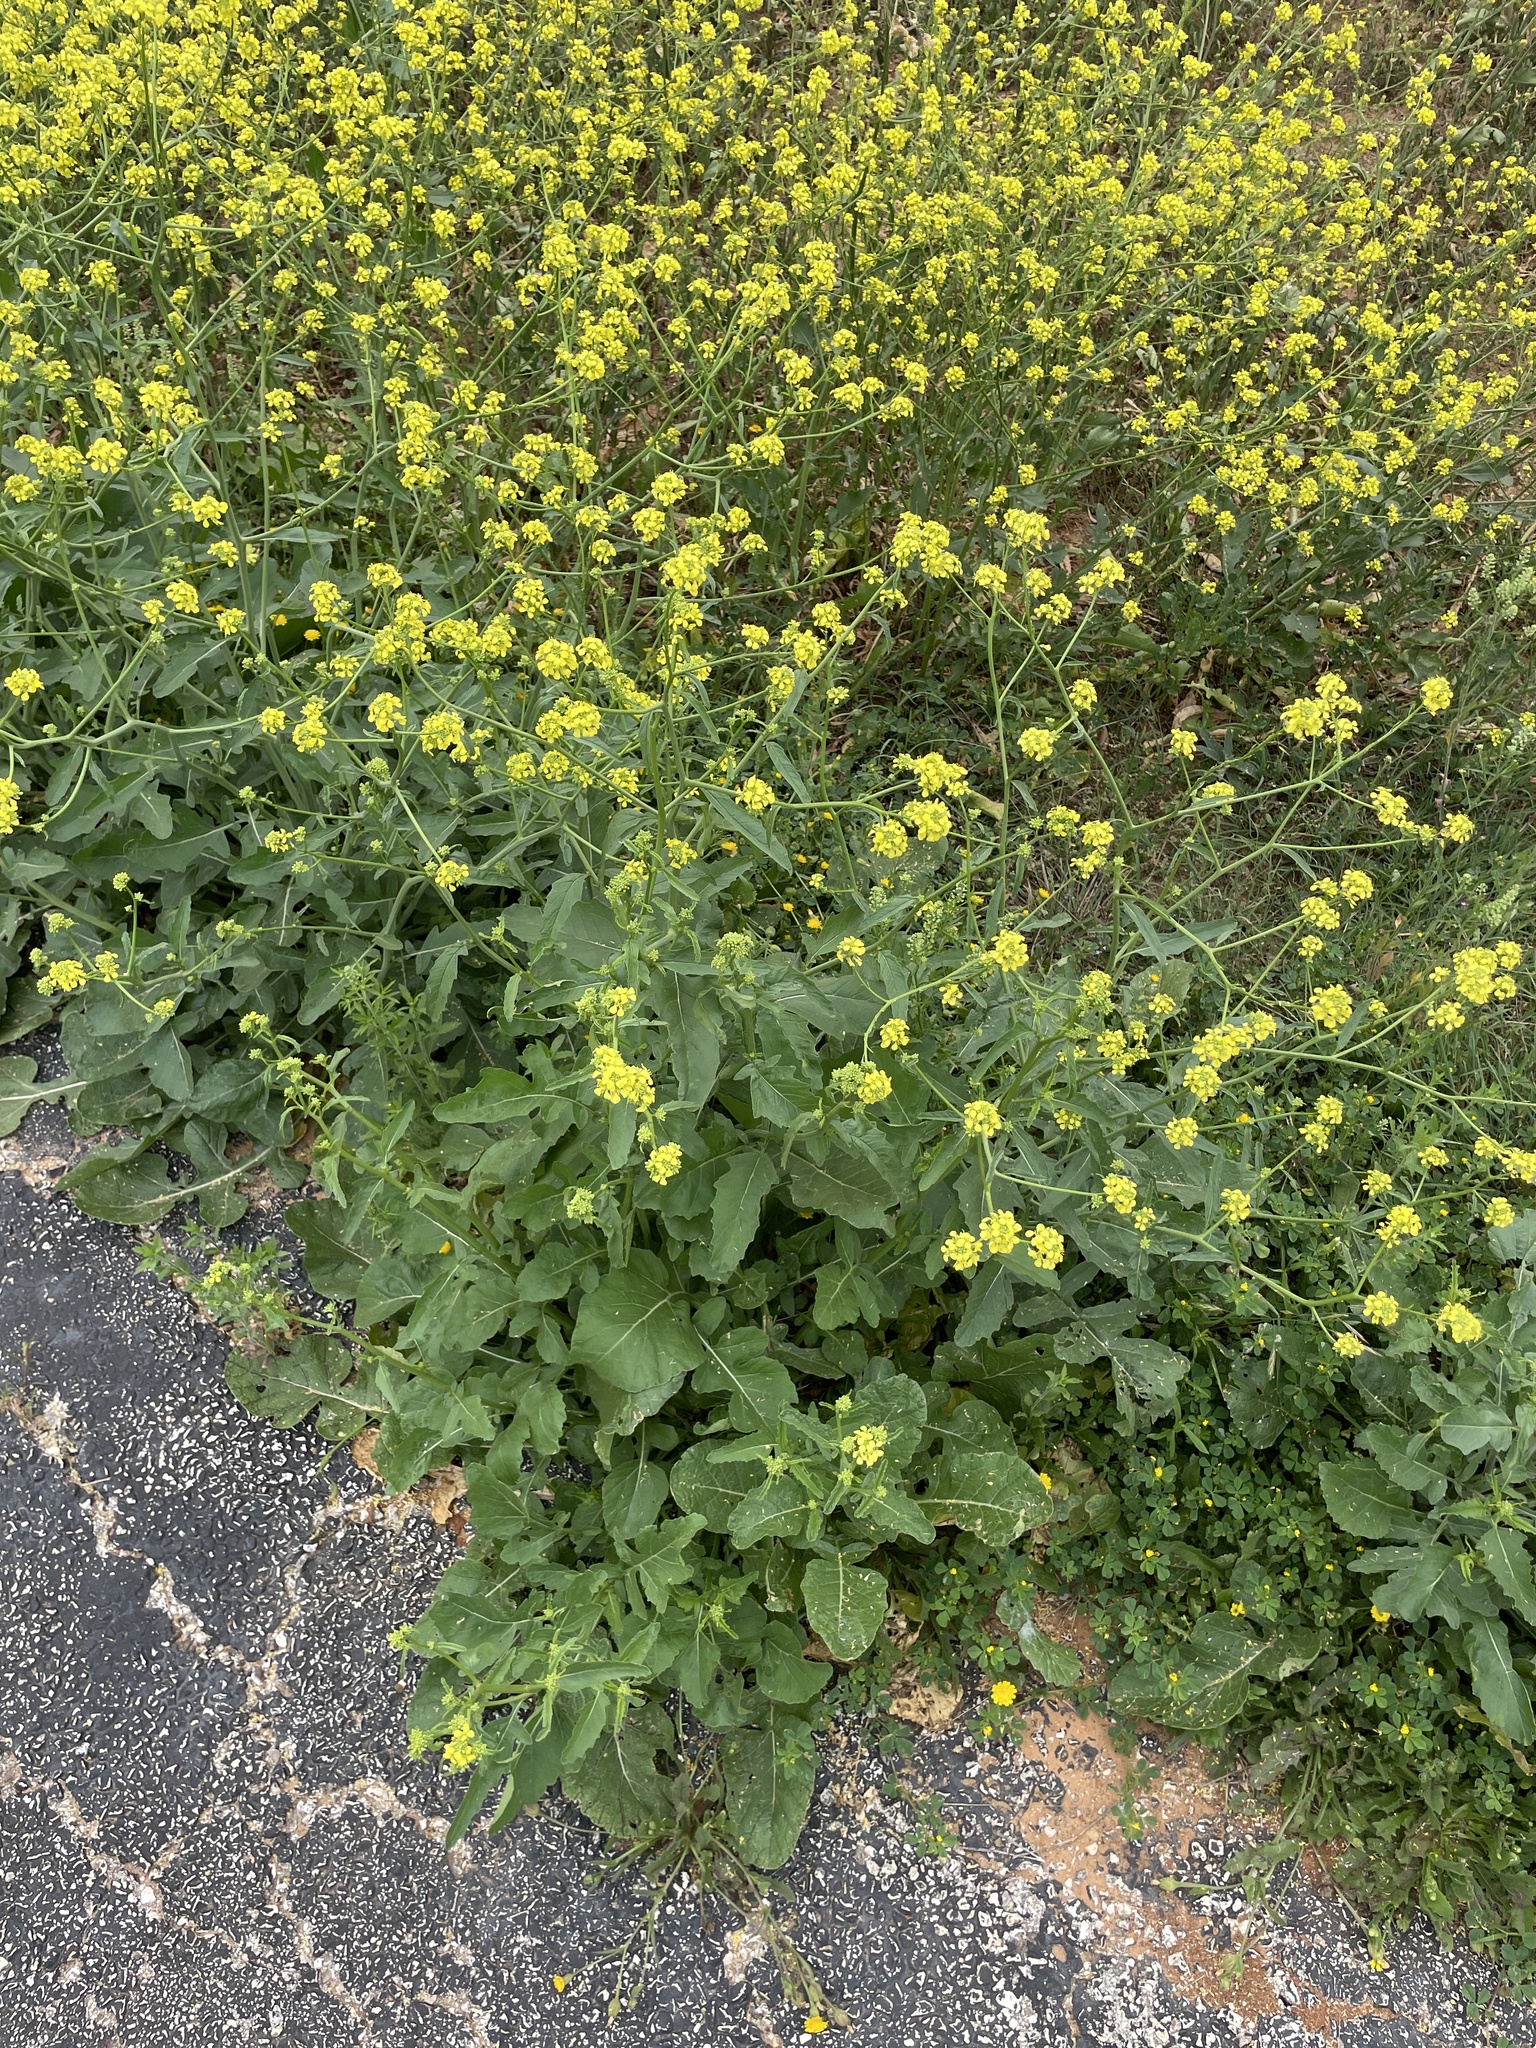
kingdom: Plantae
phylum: Tracheophyta
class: Magnoliopsida
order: Brassicales
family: Brassicaceae
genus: Rapistrum
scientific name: Rapistrum rugosum
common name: Annual bastardcabbage
